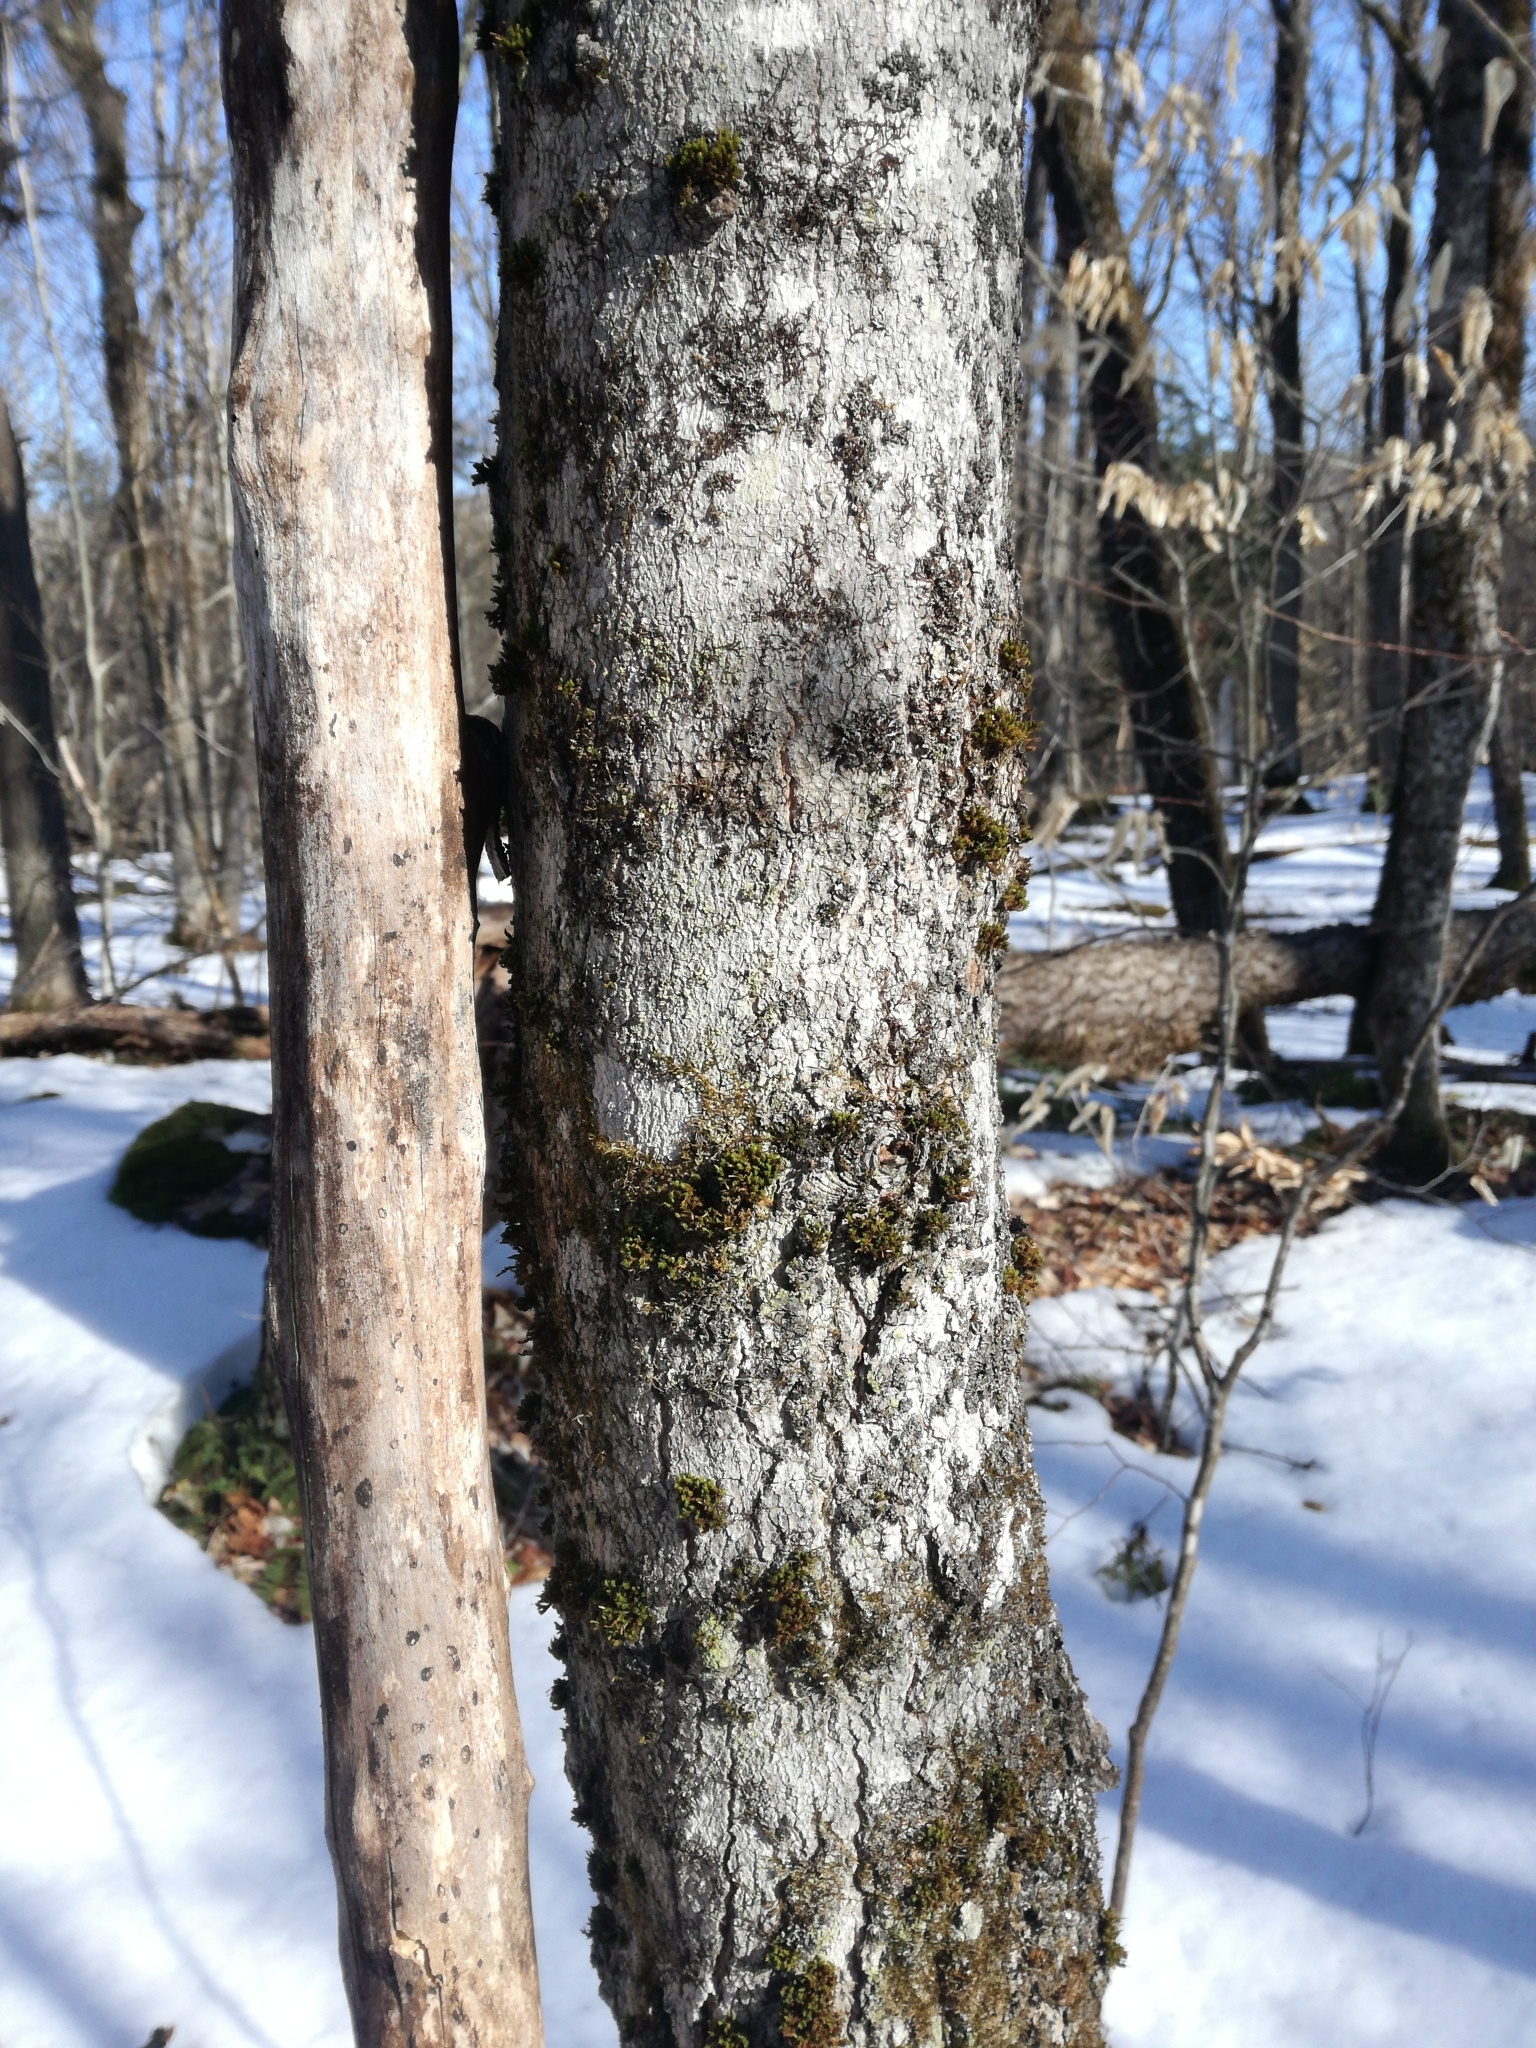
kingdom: Plantae
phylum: Bryophyta
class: Bryopsida
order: Orthotrichales
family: Orthotrichaceae
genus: Ulota
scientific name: Ulota crispa
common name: Crisped pincushion moss
